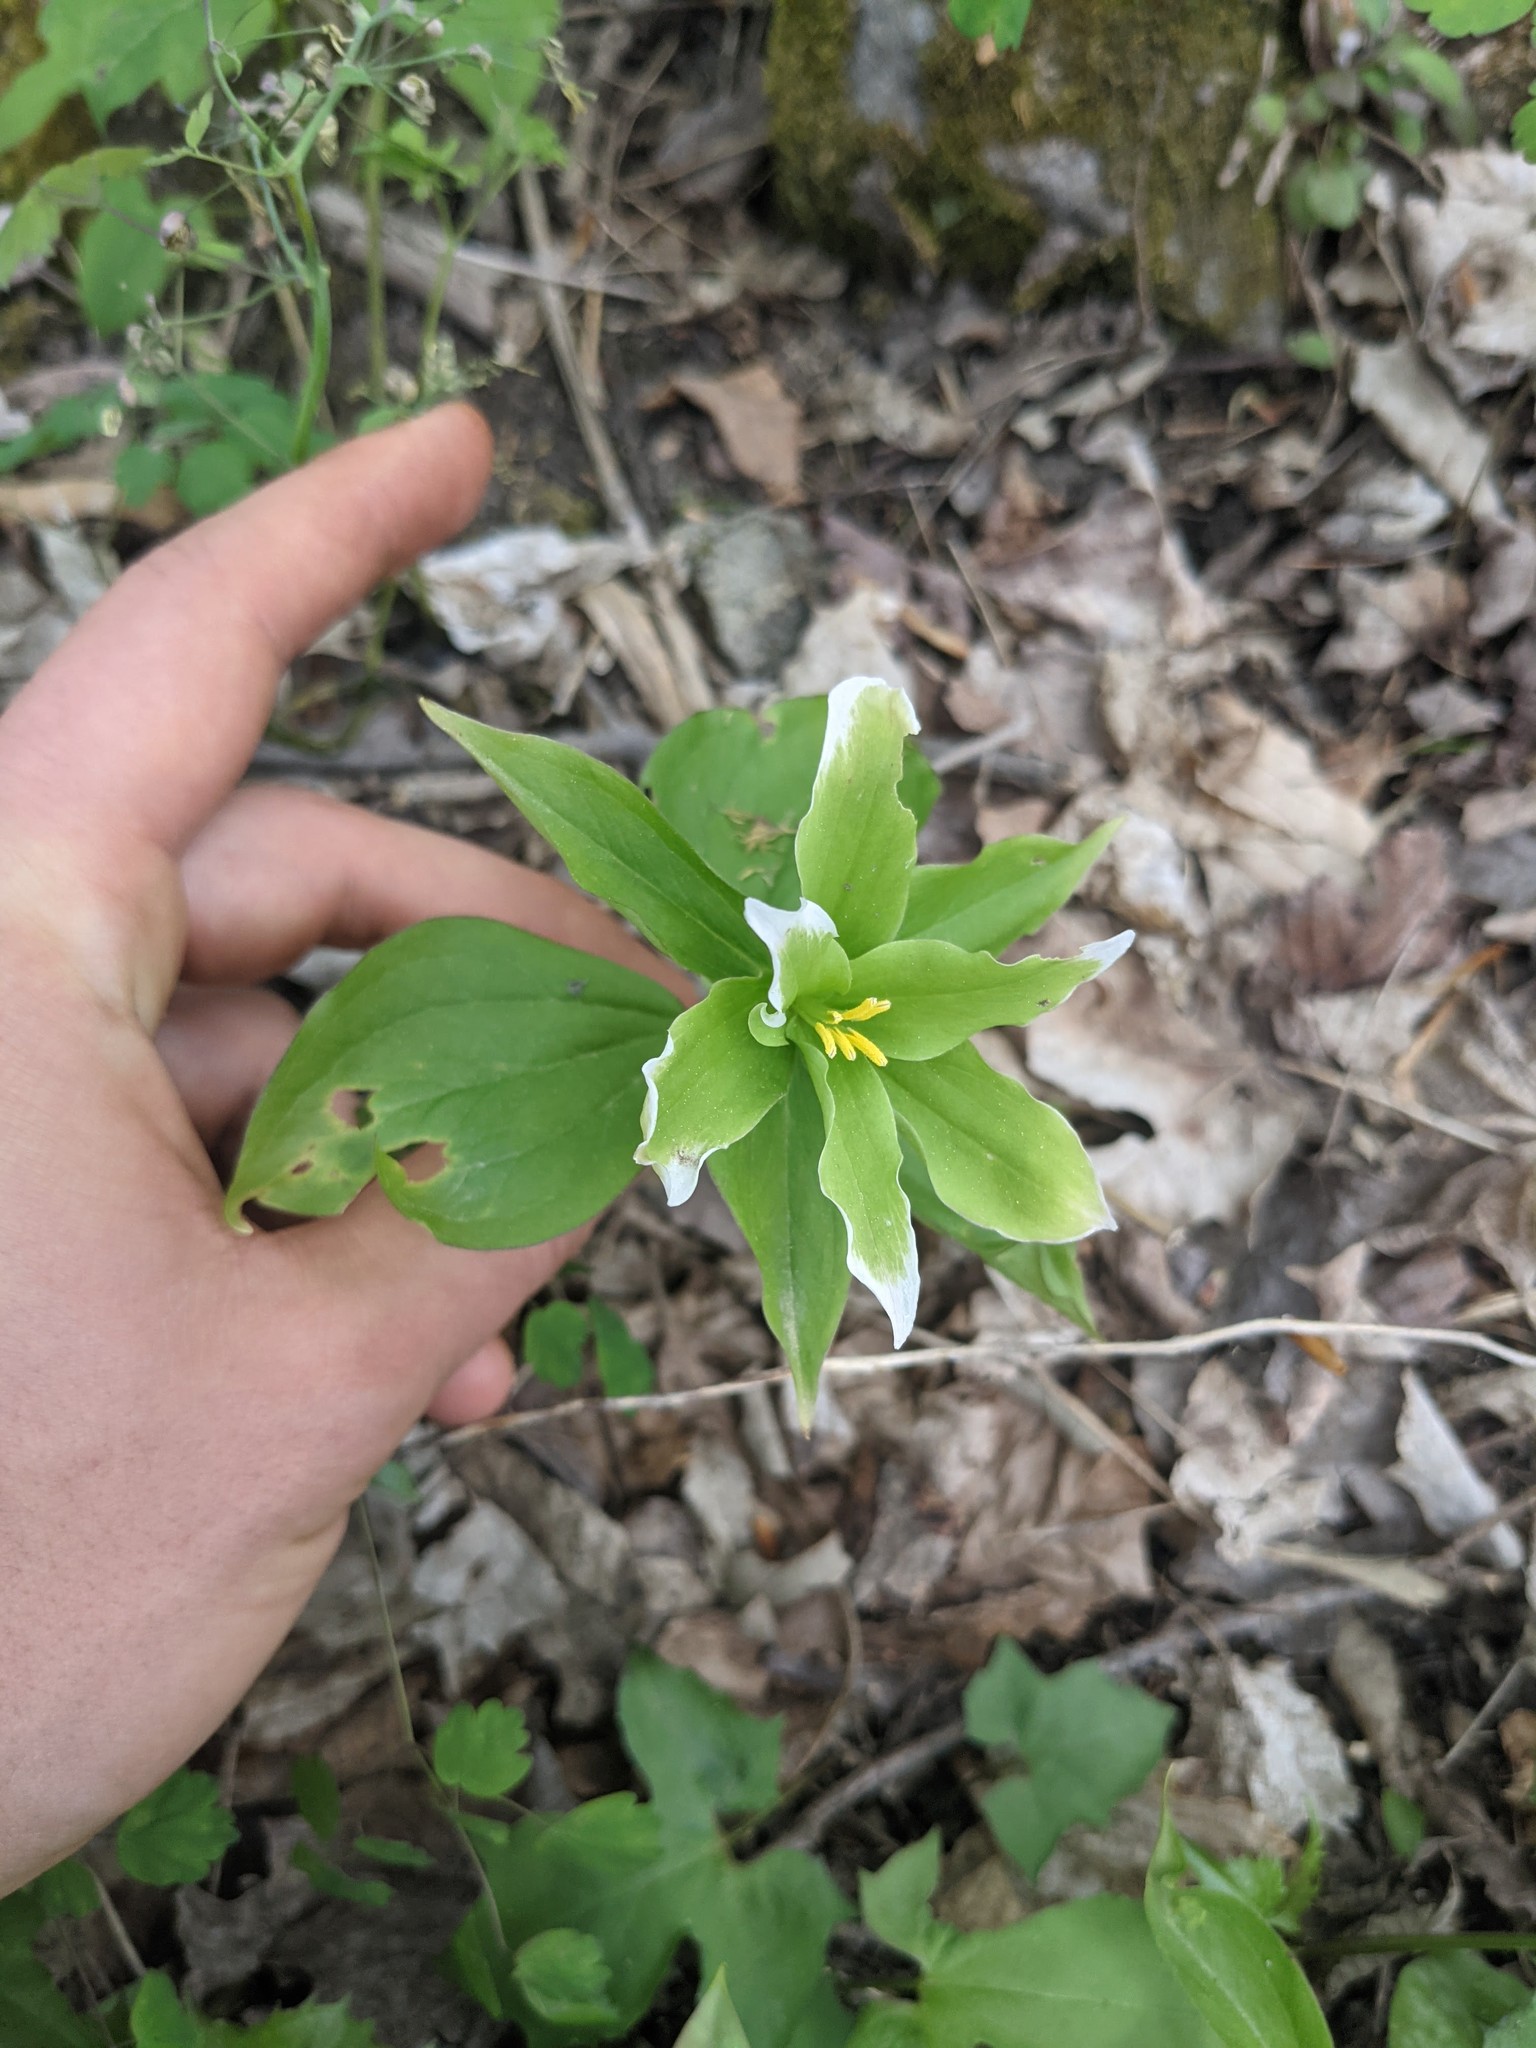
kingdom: Plantae
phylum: Tracheophyta
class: Liliopsida
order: Liliales
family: Melanthiaceae
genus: Trillium
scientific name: Trillium grandiflorum
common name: Great white trillium
